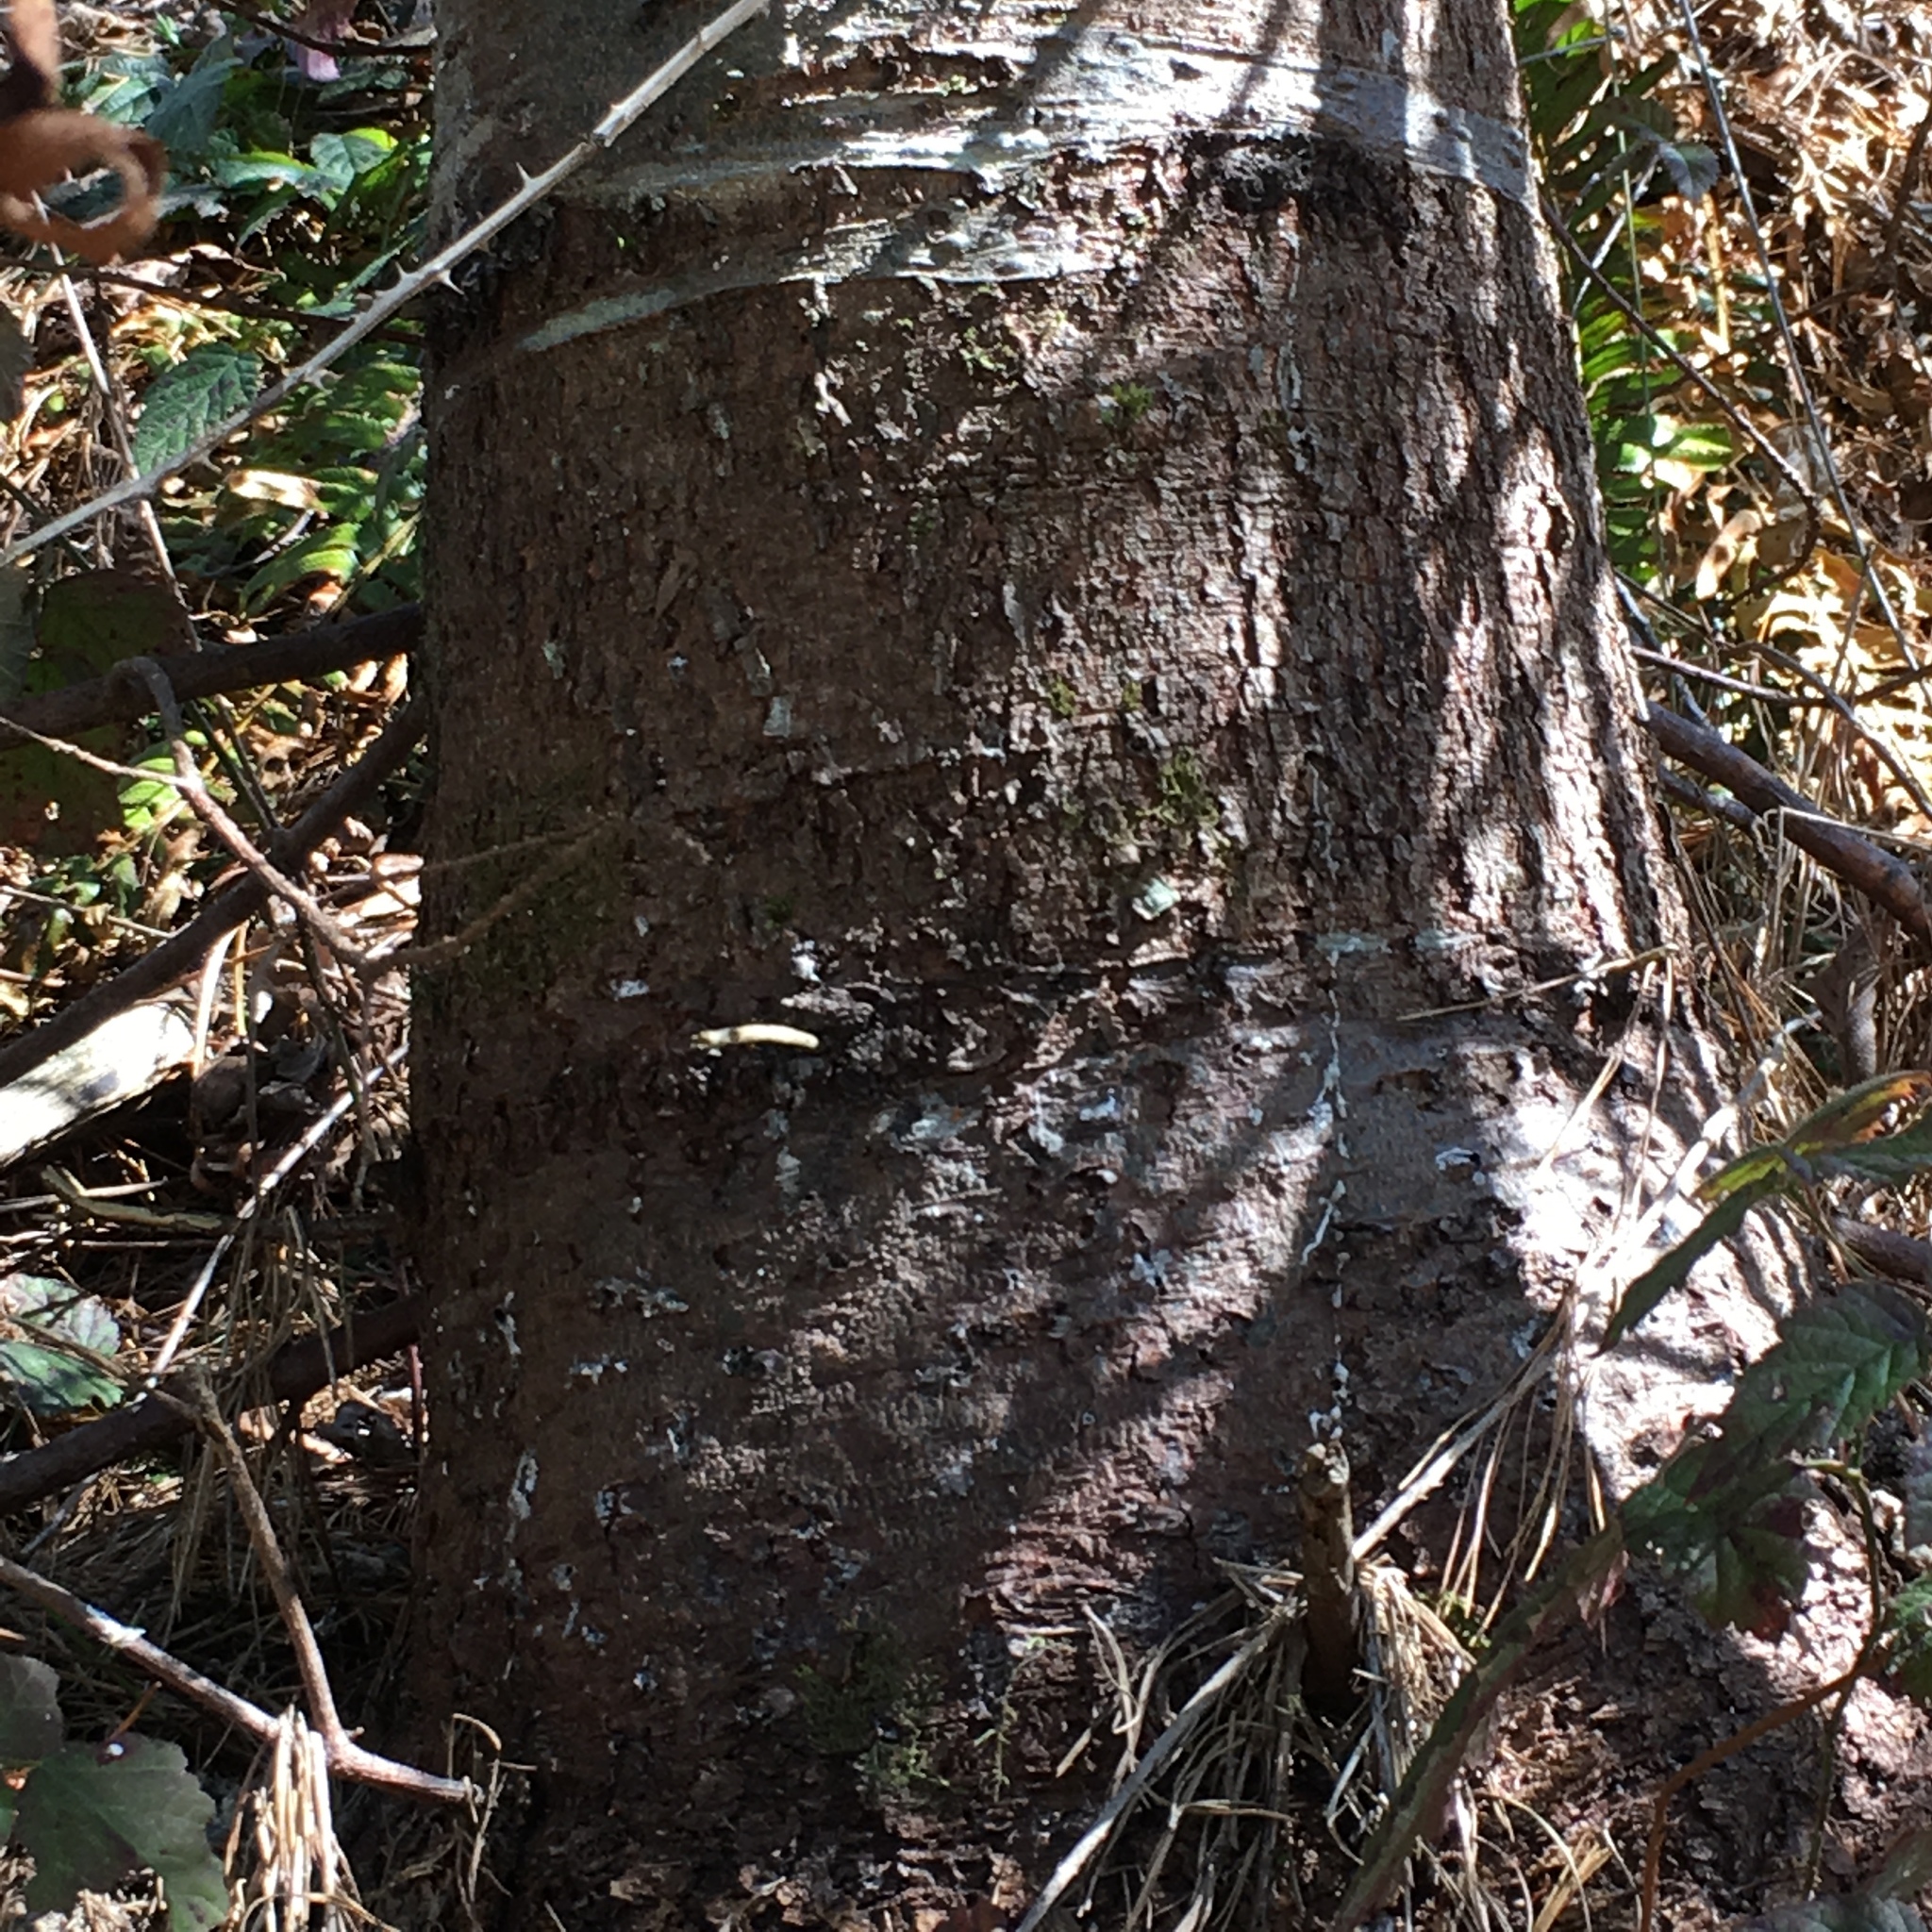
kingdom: Plantae
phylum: Tracheophyta
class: Pinopsida
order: Pinales
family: Pinaceae
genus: Pinus
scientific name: Pinus monticola
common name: Western white pine
